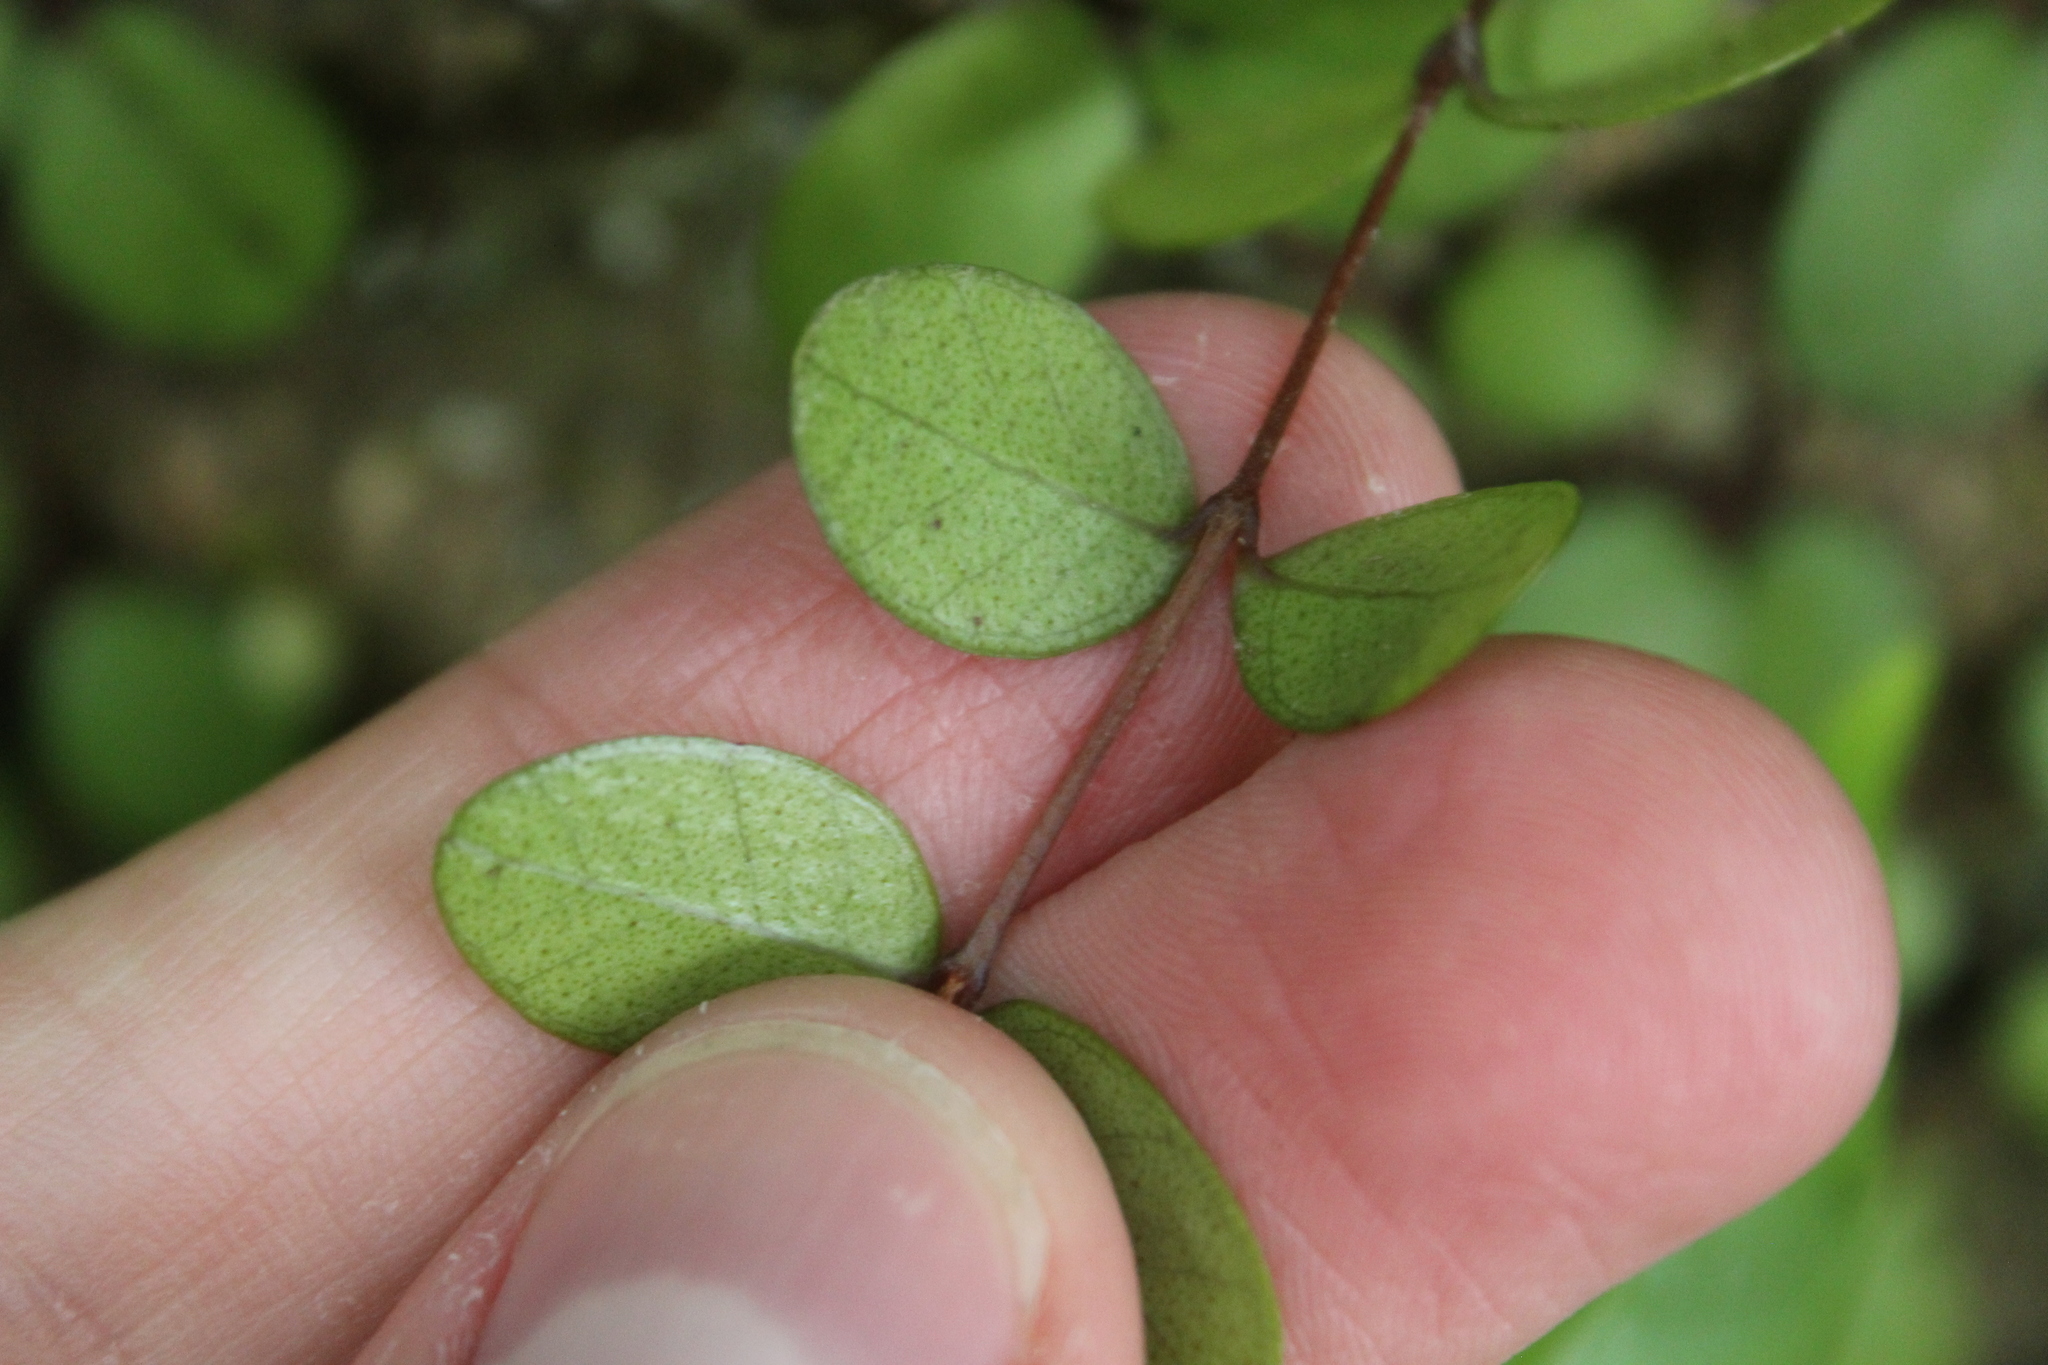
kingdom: Plantae
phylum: Tracheophyta
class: Magnoliopsida
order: Myrtales
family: Myrtaceae
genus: Metrosideros
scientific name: Metrosideros perforata
